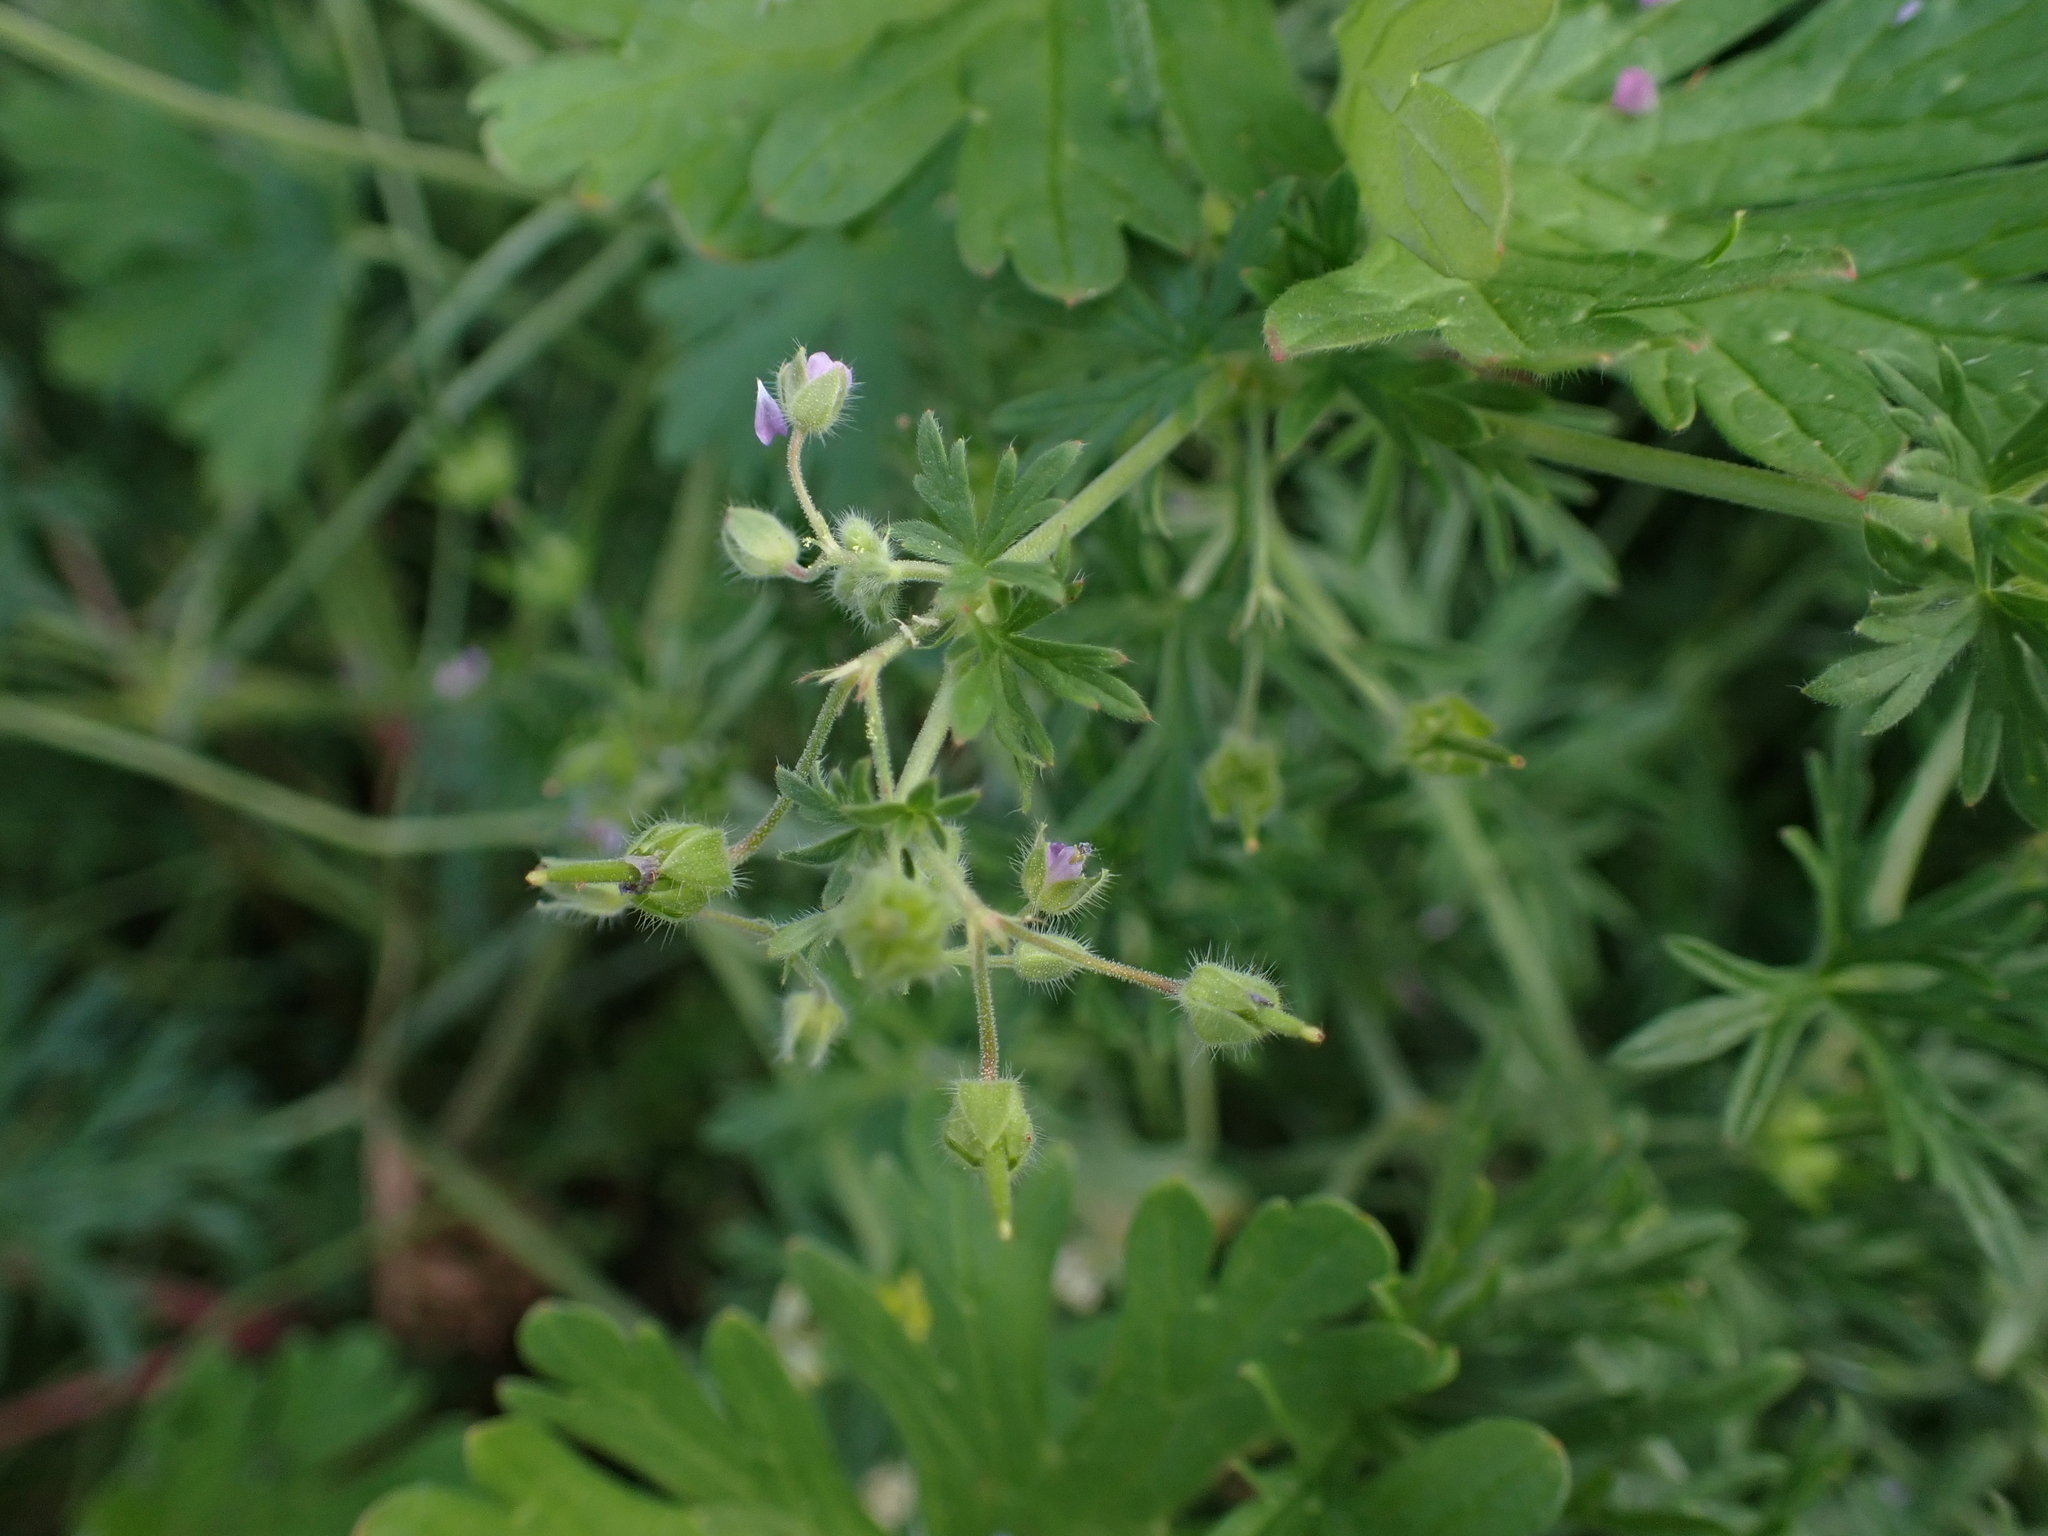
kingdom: Plantae
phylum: Tracheophyta
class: Magnoliopsida
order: Geraniales
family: Geraniaceae
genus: Geranium
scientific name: Geranium pusillum
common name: Small geranium
